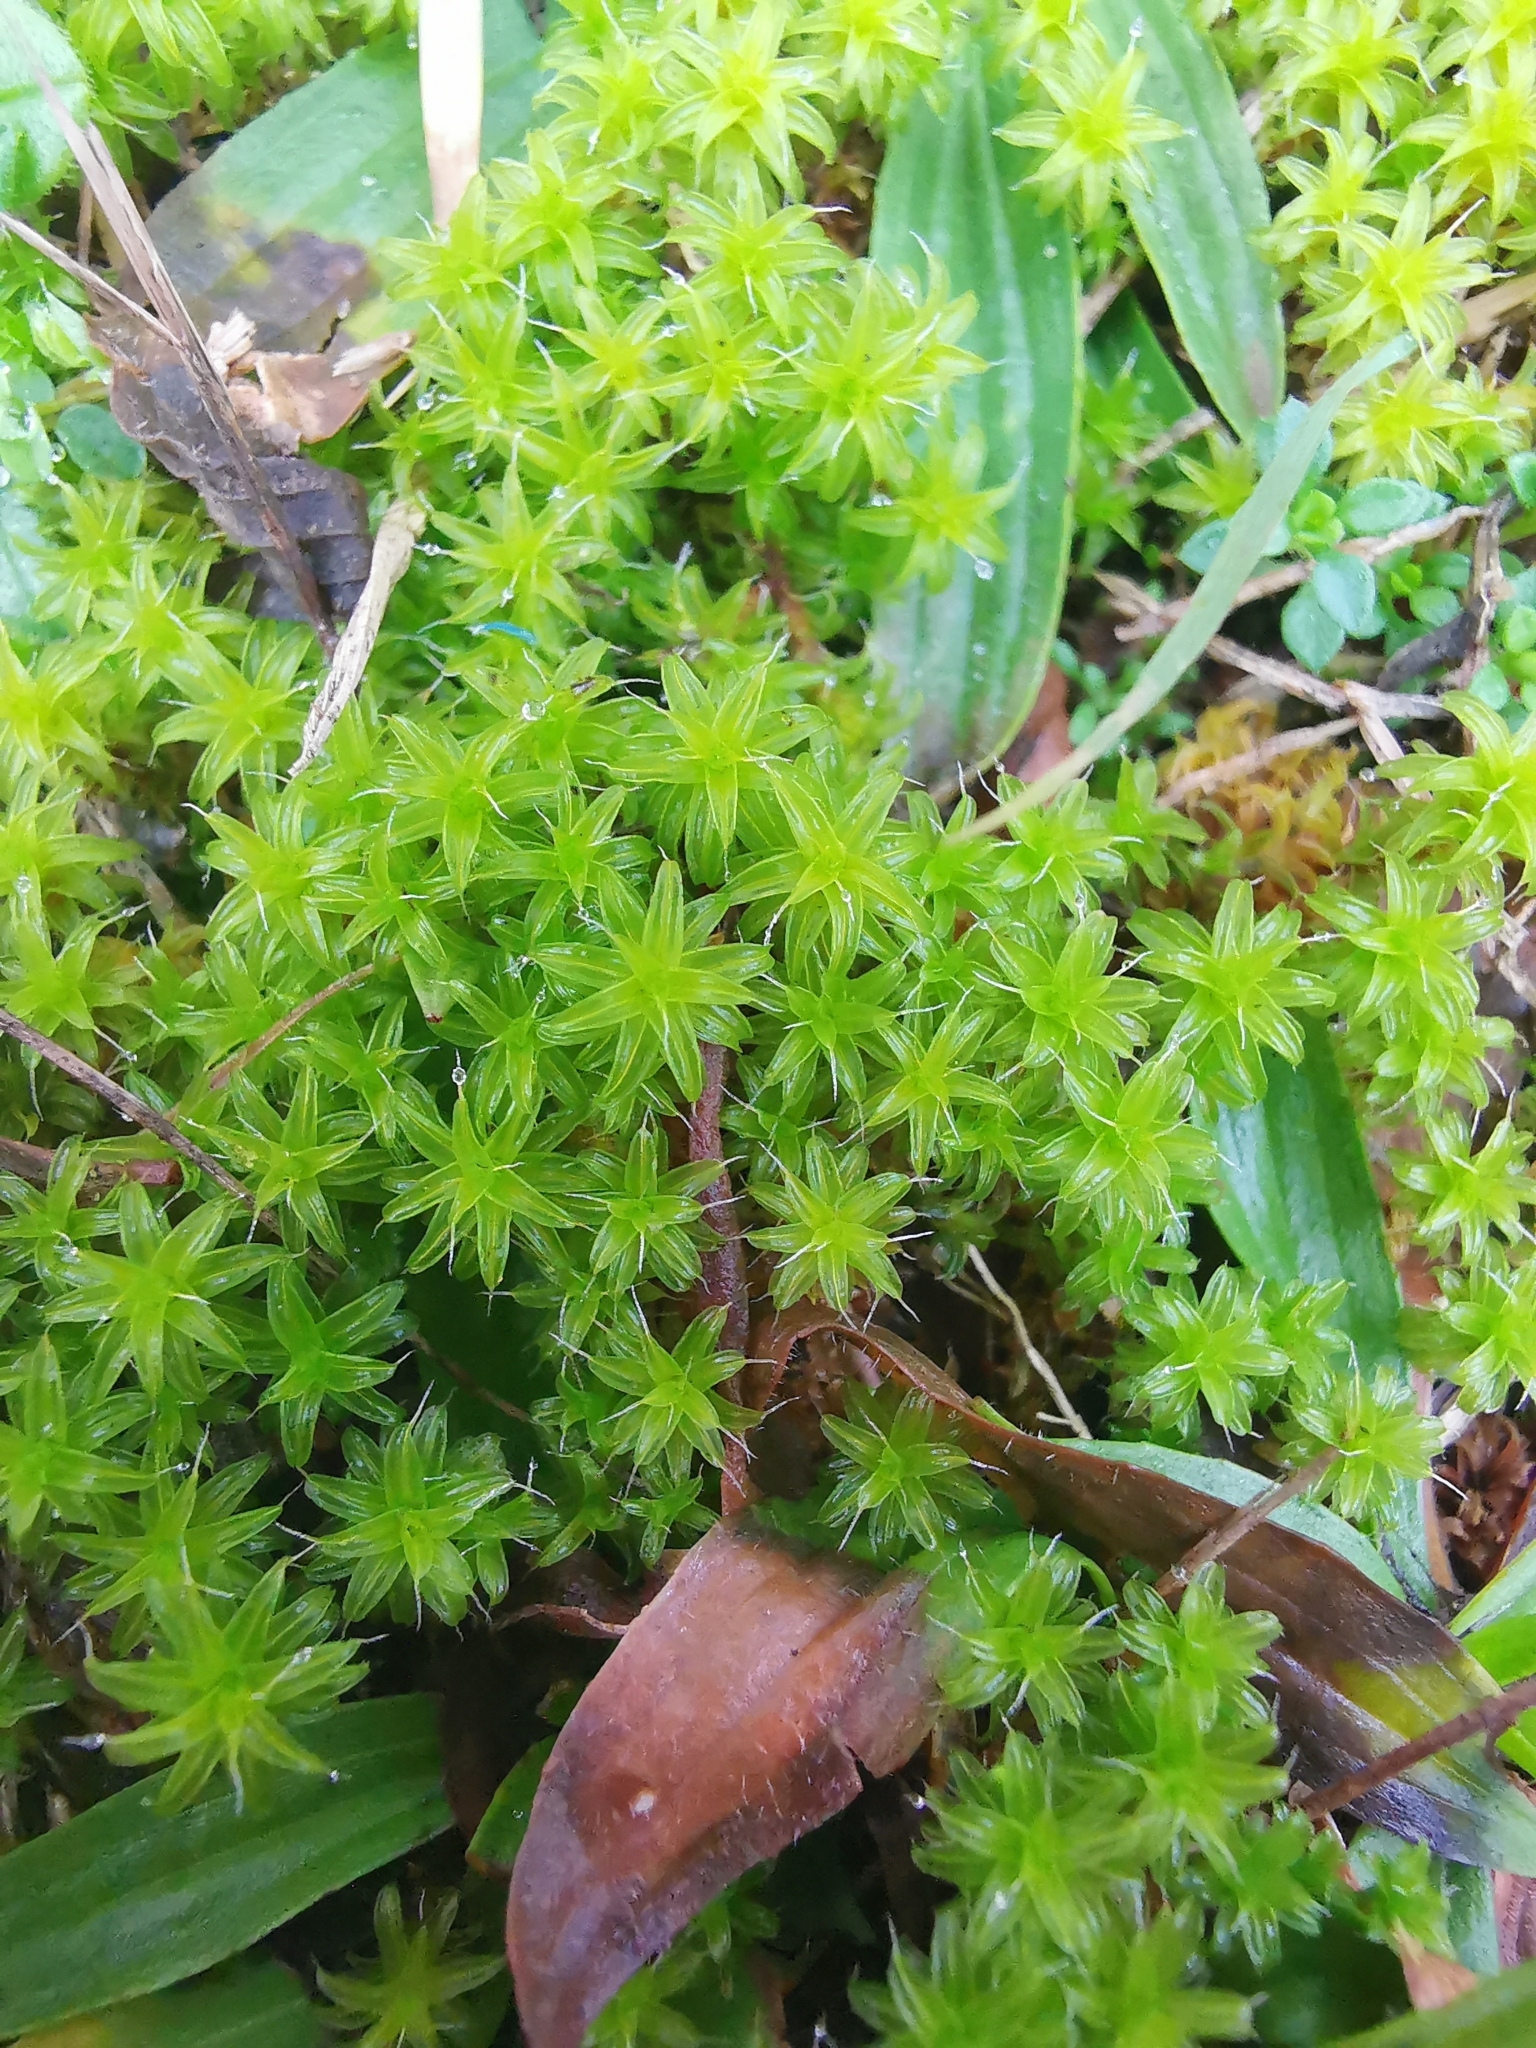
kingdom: Plantae
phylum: Bryophyta
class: Bryopsida
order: Pottiales
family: Pottiaceae
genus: Syntrichia
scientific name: Syntrichia ruralis
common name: Sidewalk screw moss
